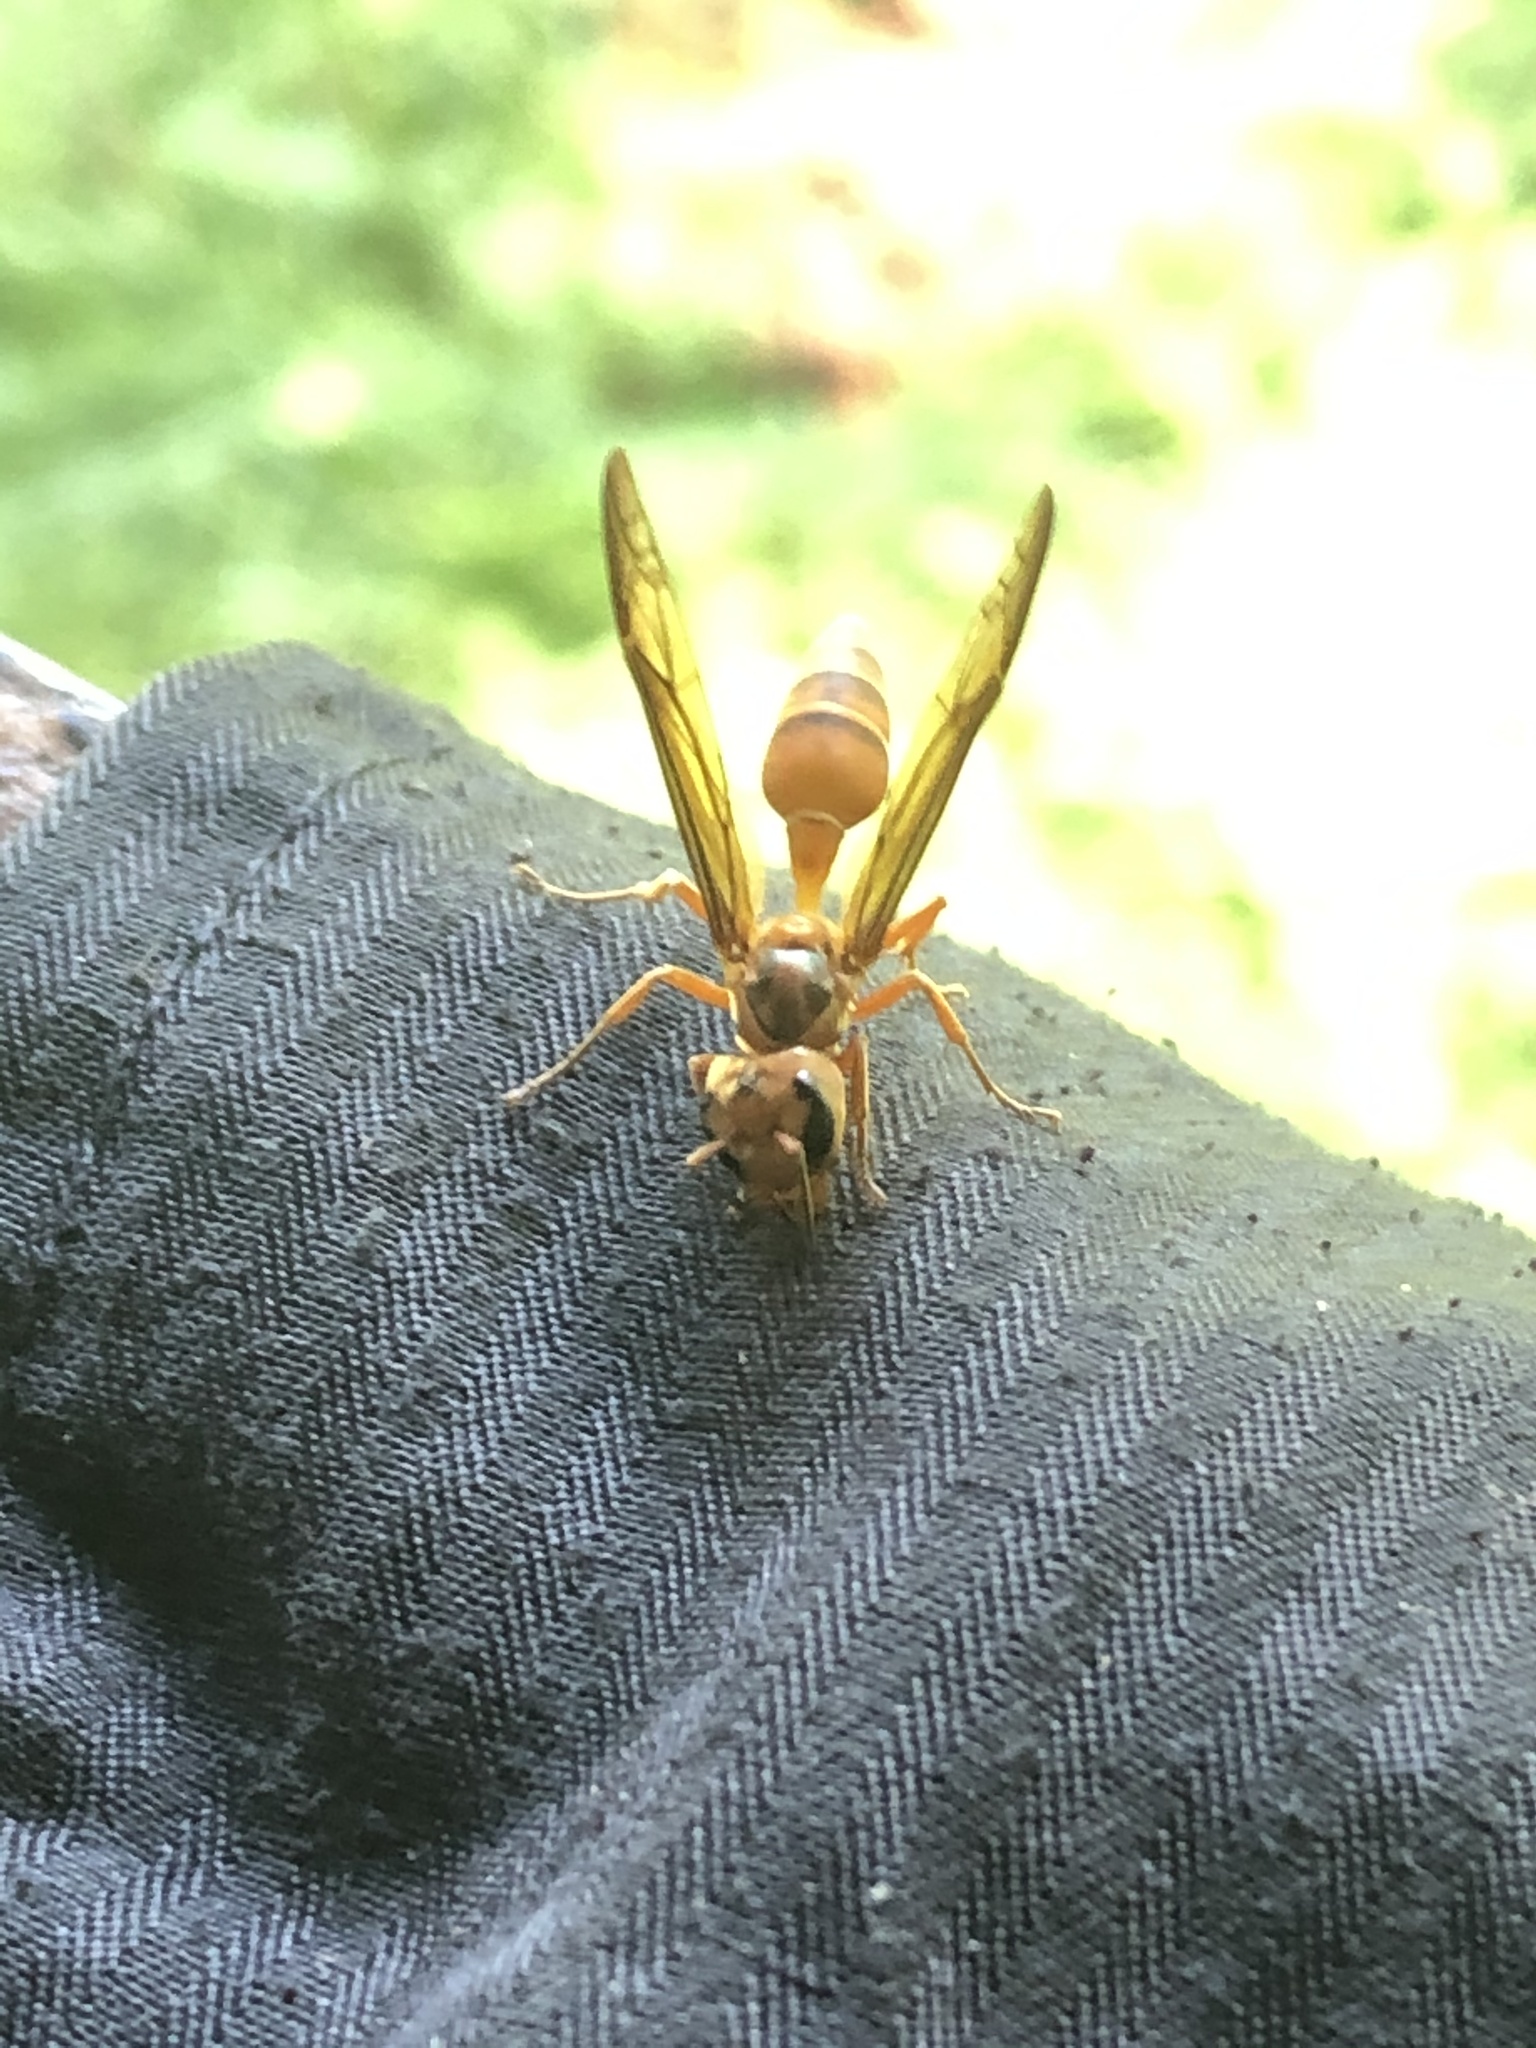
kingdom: Animalia
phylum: Arthropoda
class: Insecta
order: Hymenoptera
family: Vespidae
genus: Synoeca
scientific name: Synoeca virginea
